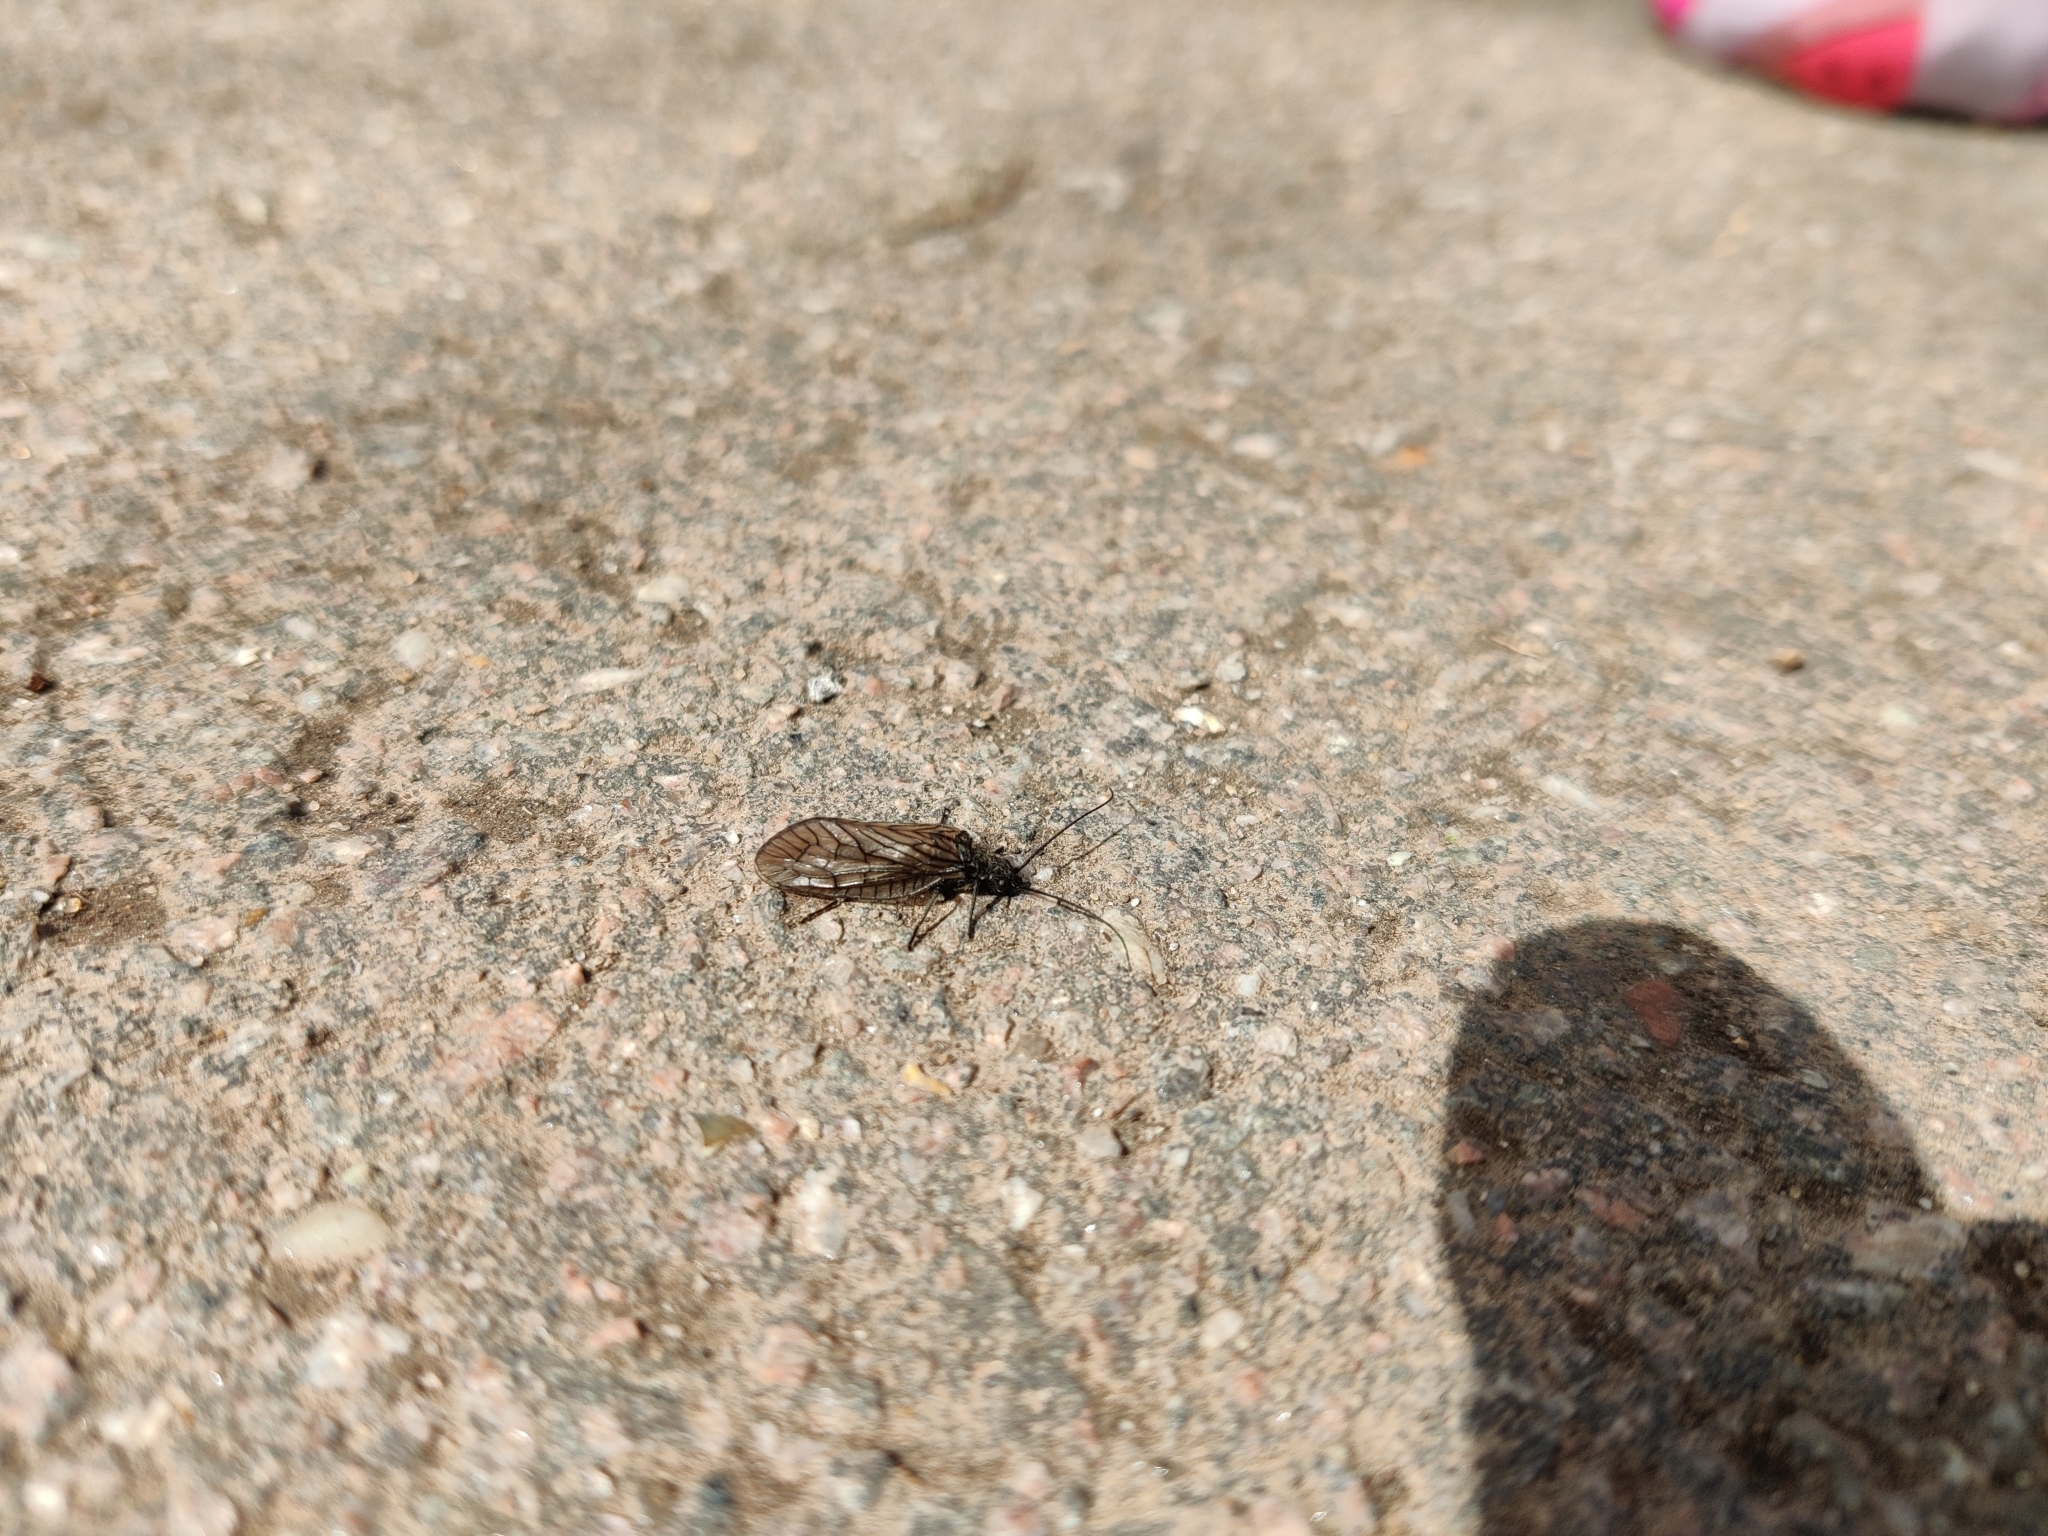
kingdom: Animalia
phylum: Arthropoda
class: Insecta
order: Megaloptera
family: Sialidae
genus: Sialis
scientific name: Sialis
